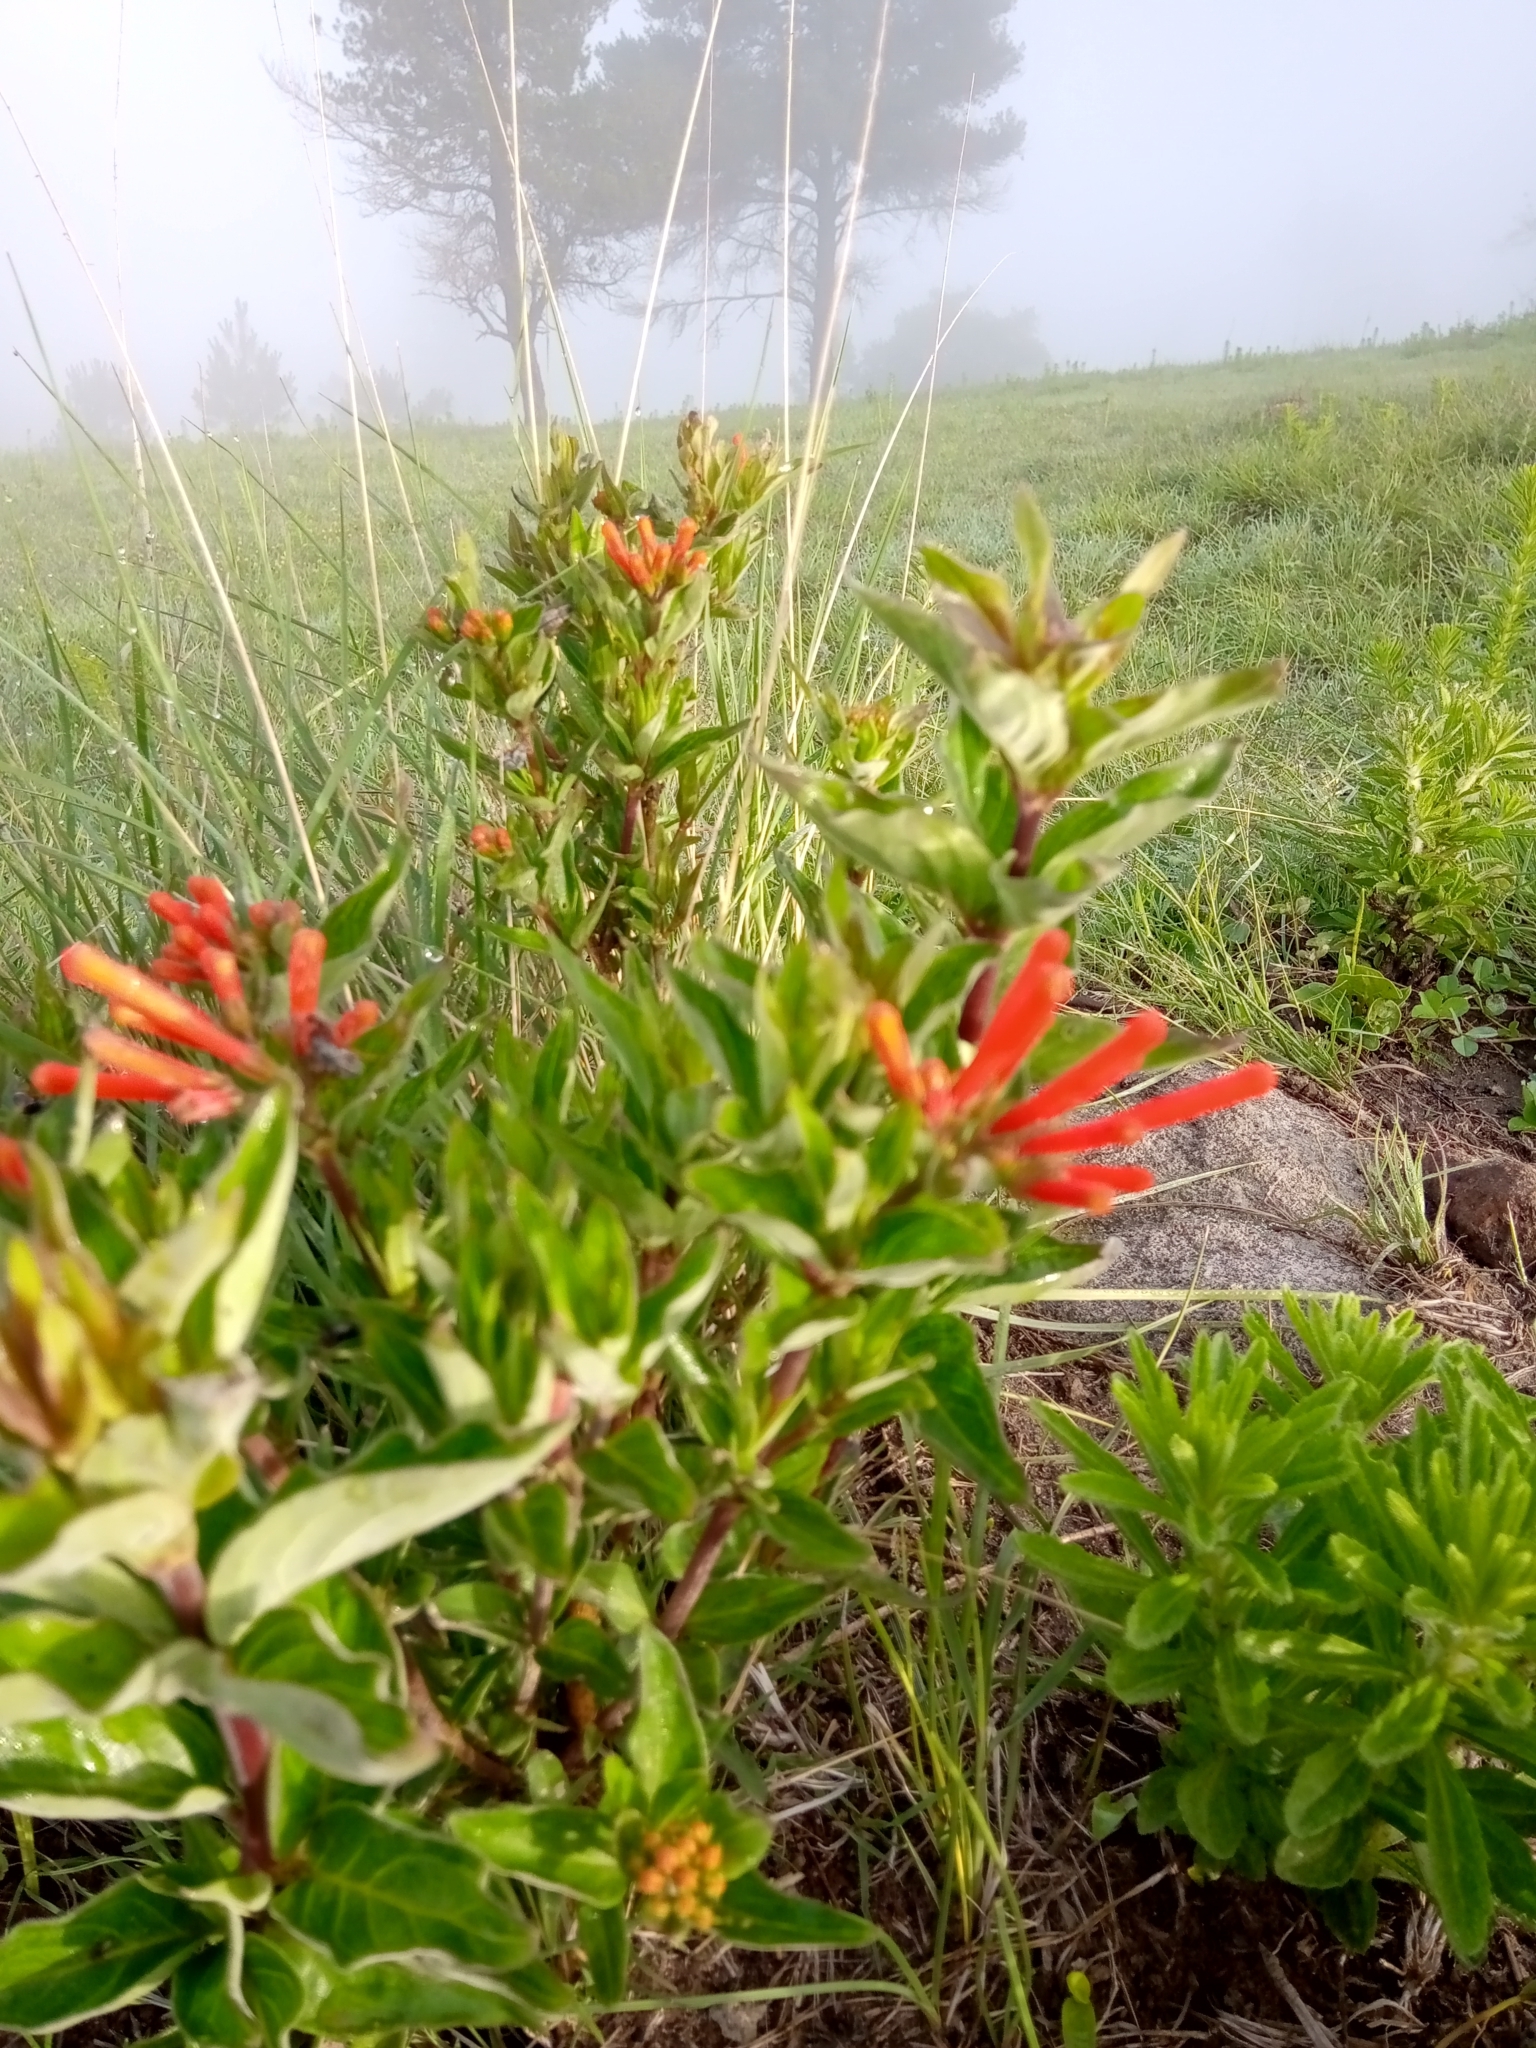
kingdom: Plantae
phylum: Tracheophyta
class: Magnoliopsida
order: Gentianales
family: Rubiaceae
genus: Bouvardia
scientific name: Bouvardia ternifolia
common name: Scarlet bouvardia
